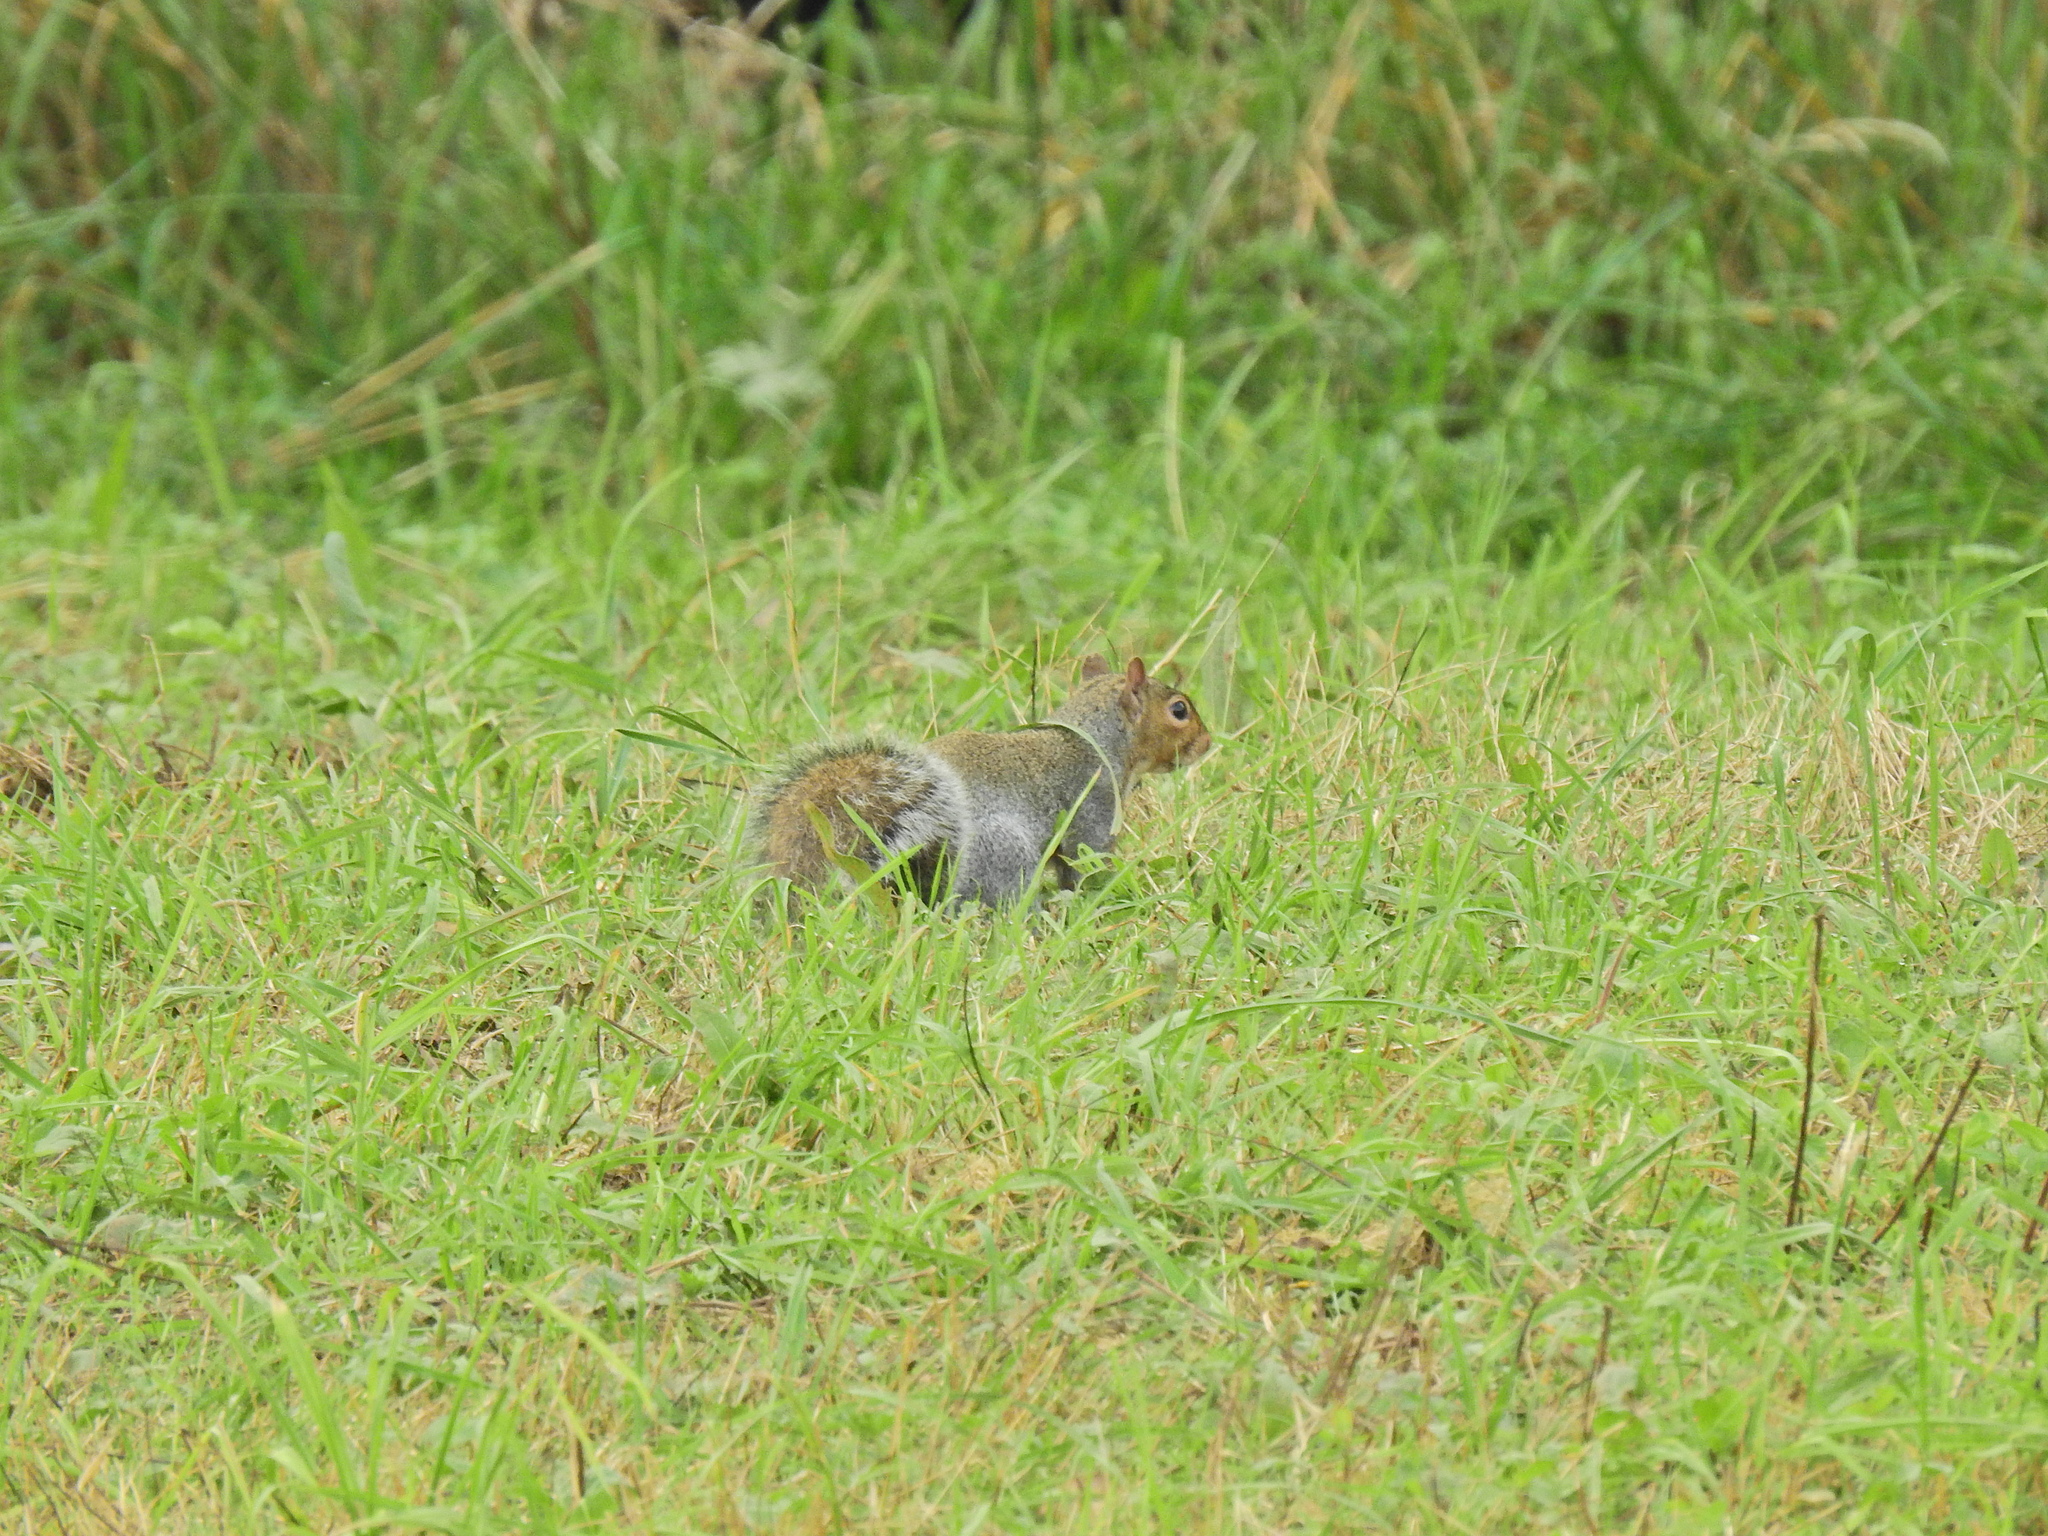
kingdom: Animalia
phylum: Chordata
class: Mammalia
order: Rodentia
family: Sciuridae
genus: Sciurus
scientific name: Sciurus carolinensis
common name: Eastern gray squirrel
